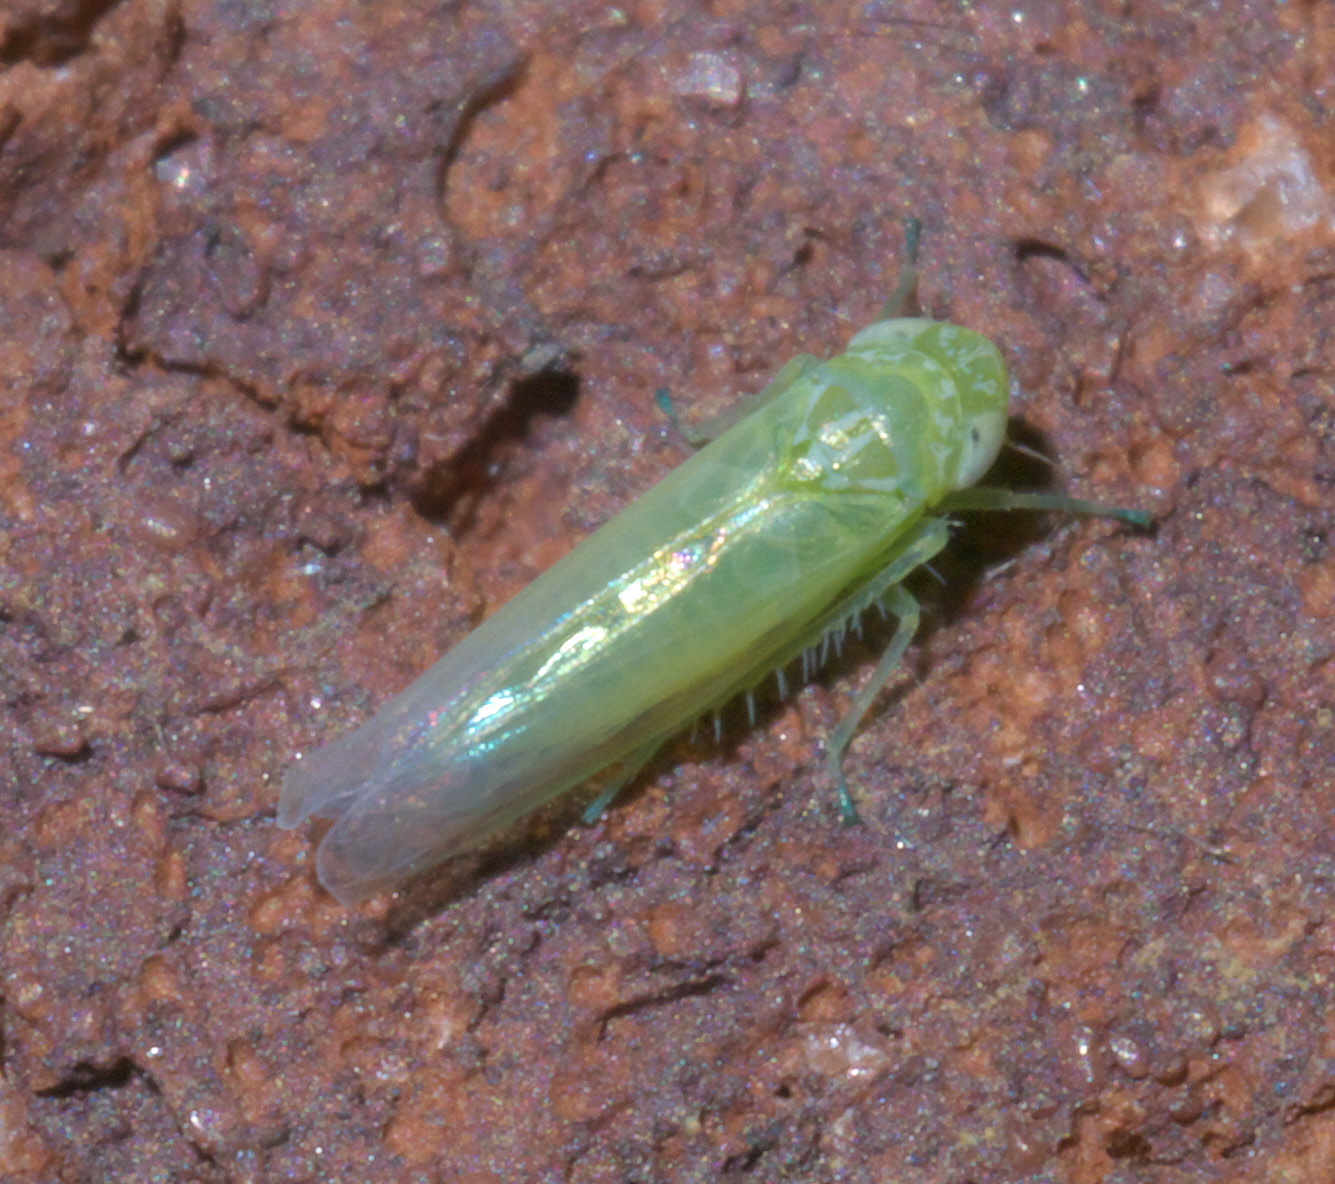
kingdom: Animalia
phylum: Arthropoda
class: Insecta
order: Hemiptera
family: Cicadellidae
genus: Empoasca
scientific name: Empoasca fabae
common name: Potato leafhopper
